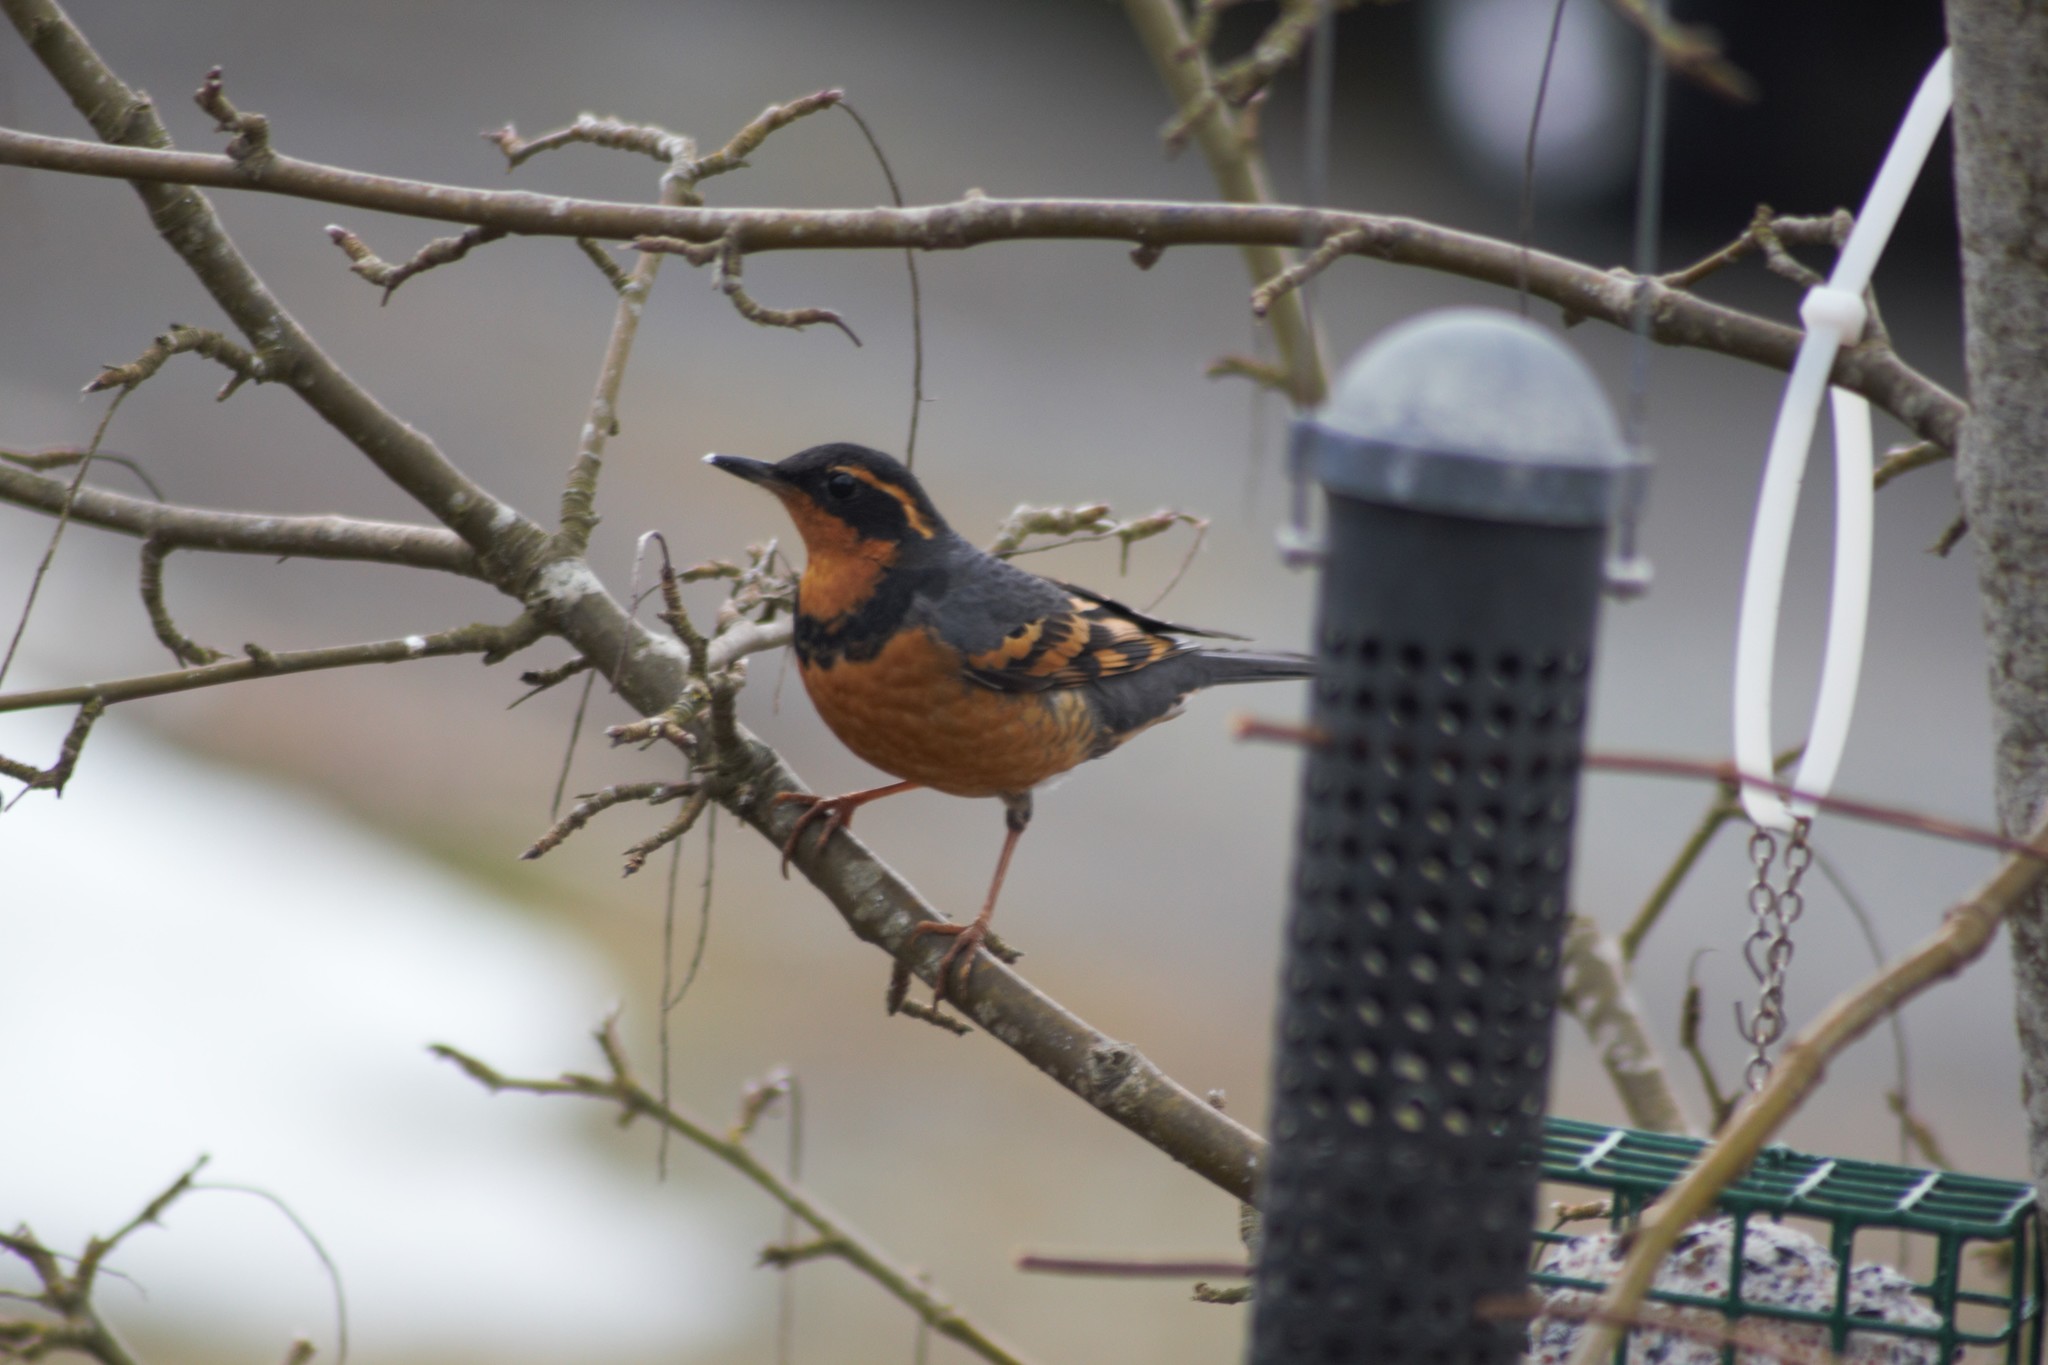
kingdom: Animalia
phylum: Chordata
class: Aves
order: Passeriformes
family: Turdidae
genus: Ixoreus
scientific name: Ixoreus naevius
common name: Varied thrush
